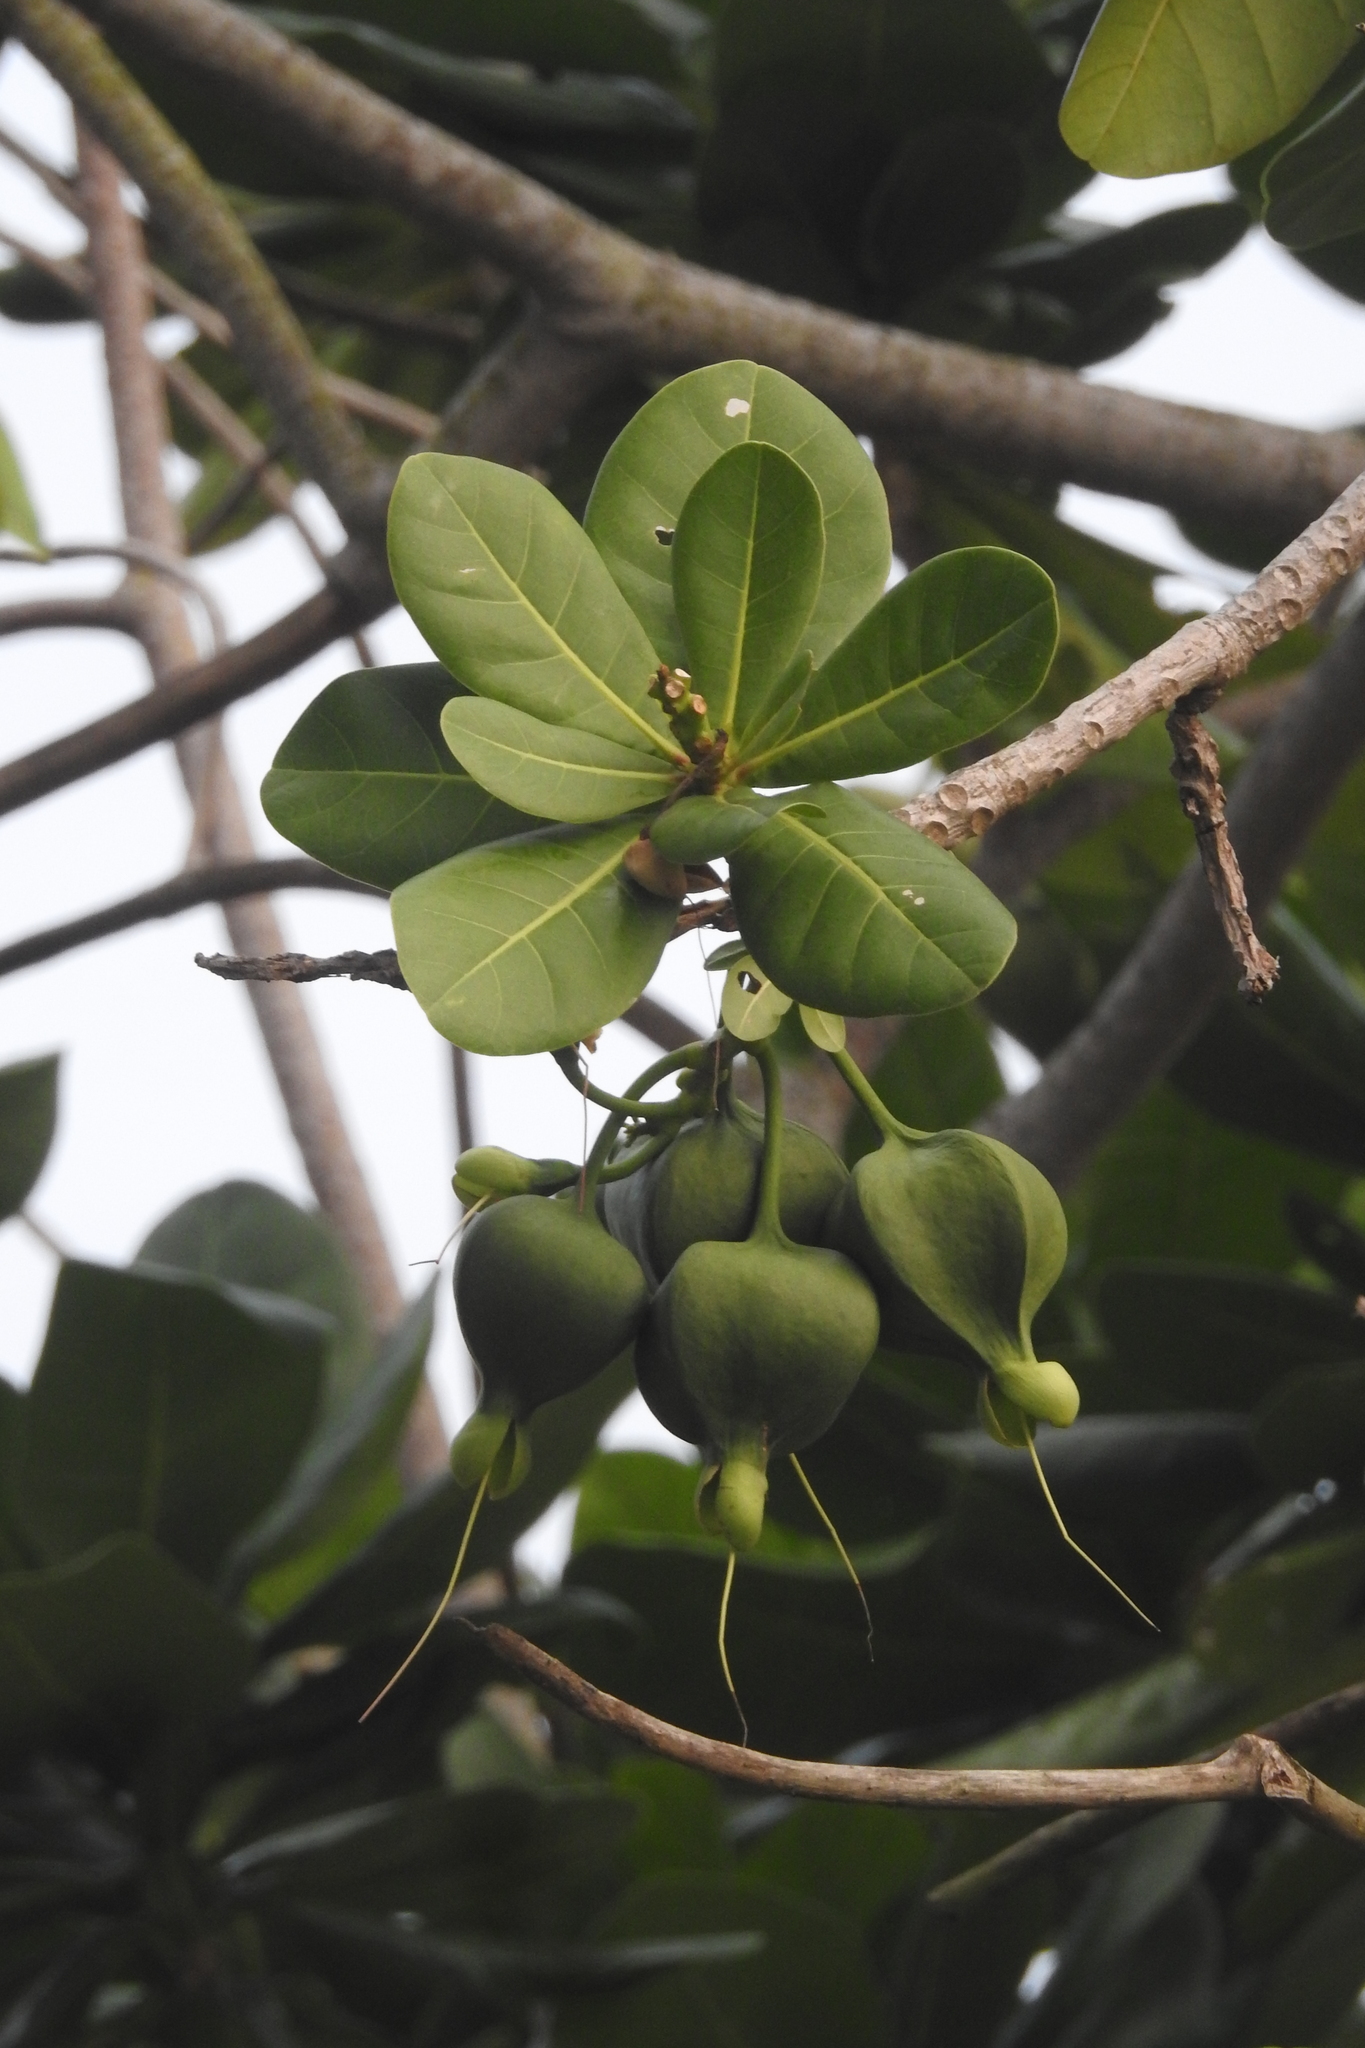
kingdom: Plantae
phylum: Tracheophyta
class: Magnoliopsida
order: Ericales
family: Lecythidaceae
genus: Barringtonia
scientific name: Barringtonia asiatica
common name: Mango-pine
